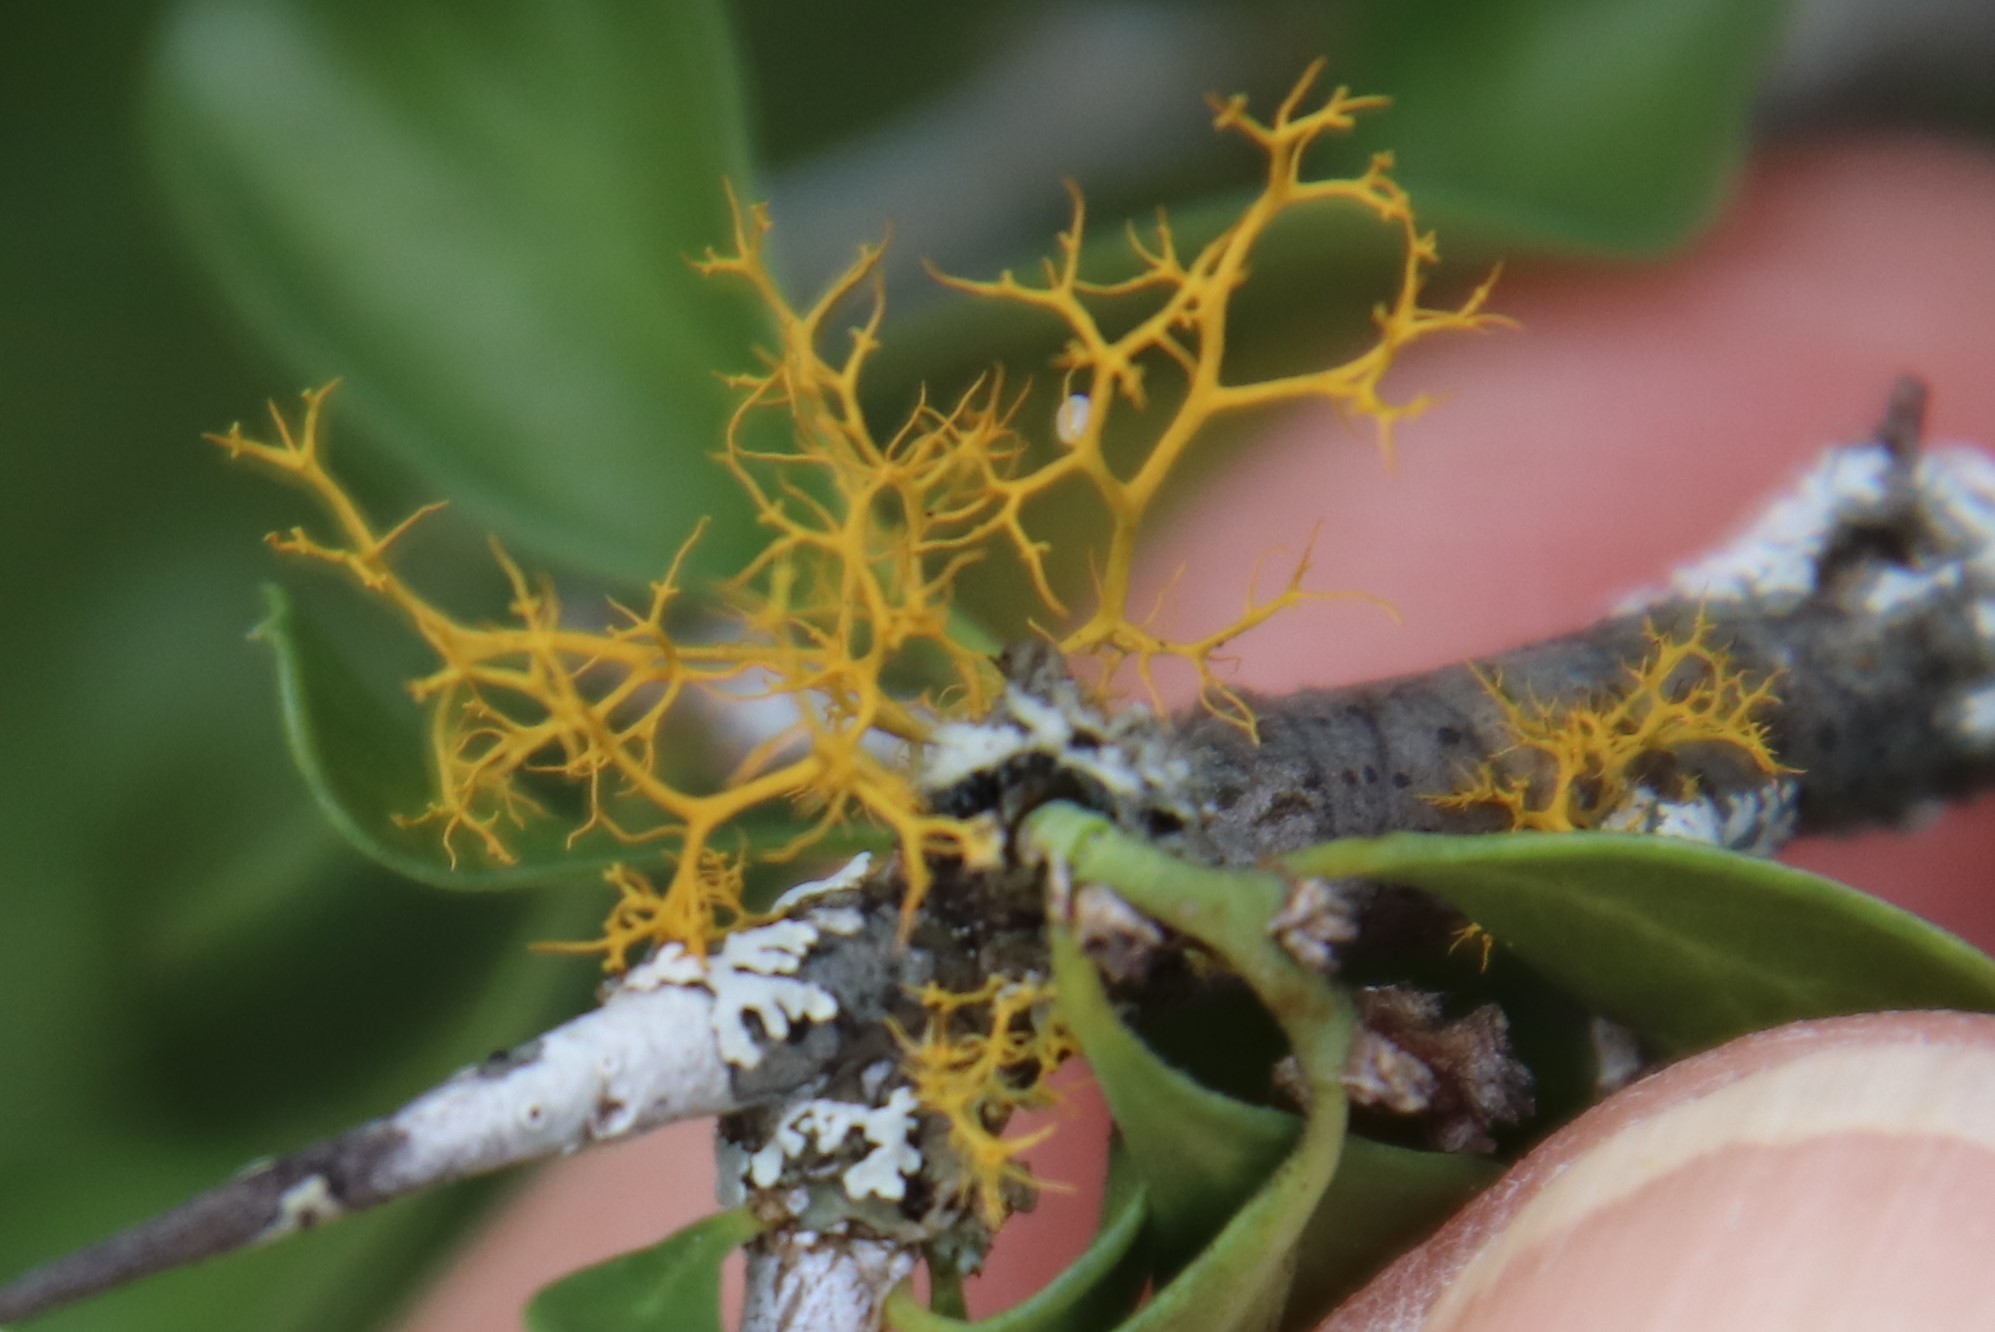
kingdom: Fungi
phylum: Ascomycota
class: Lecanoromycetes
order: Teloschistales
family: Teloschistaceae
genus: Teloschistes
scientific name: Teloschistes exilis
